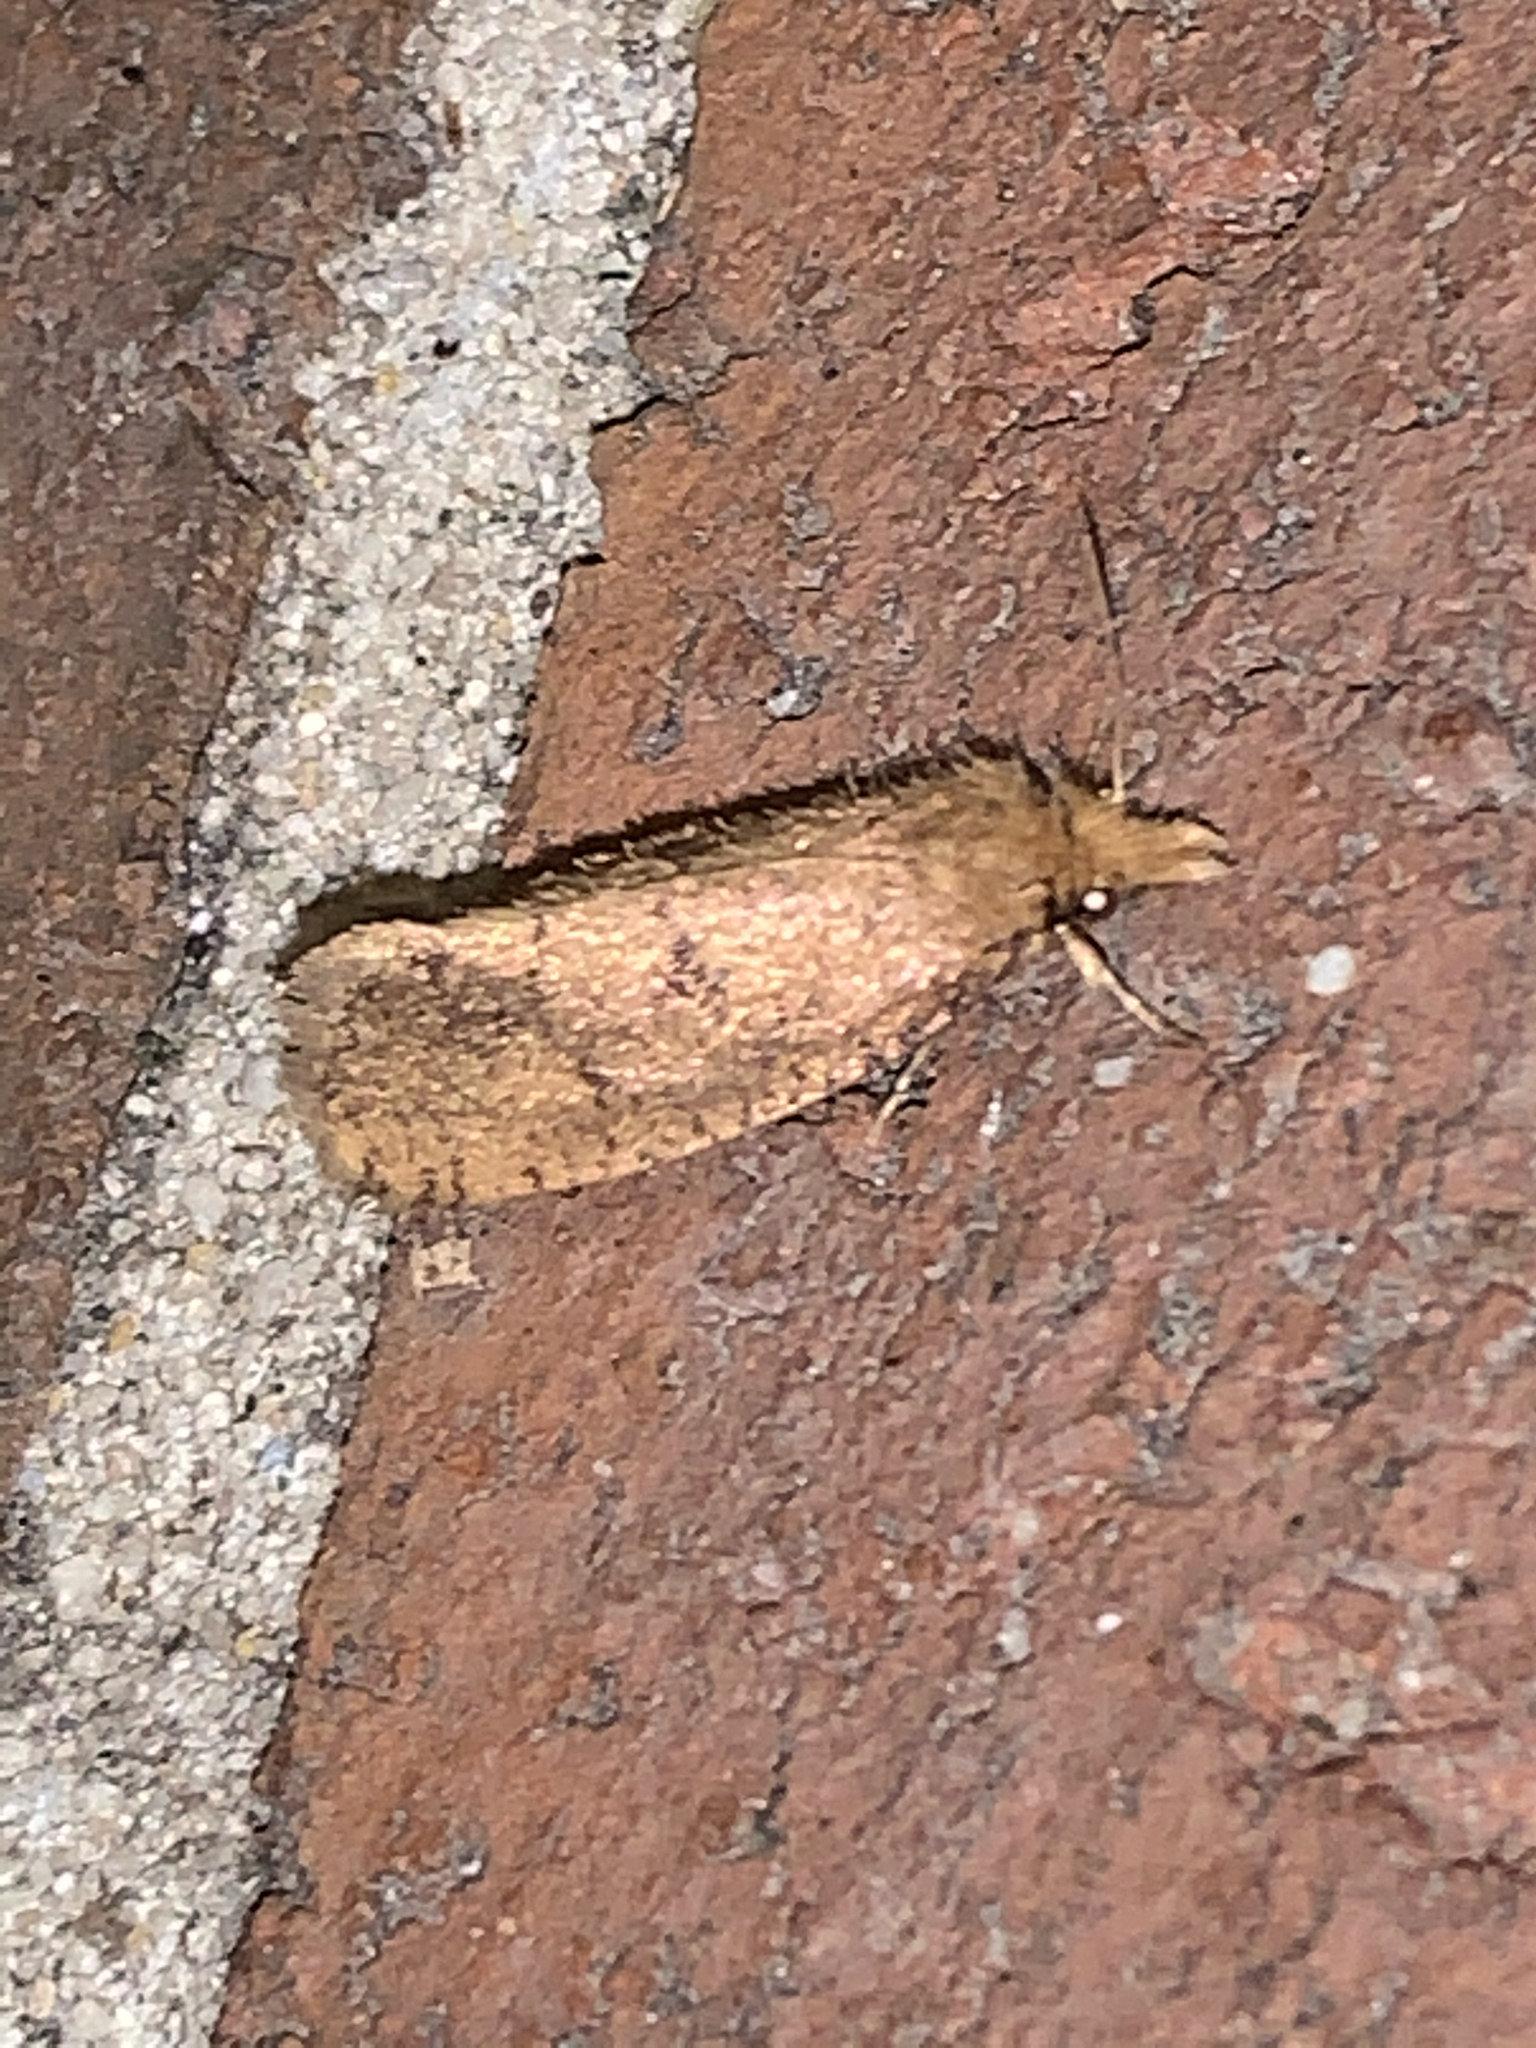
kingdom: Animalia
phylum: Arthropoda
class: Insecta
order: Lepidoptera
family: Tineidae
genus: Acrolophus
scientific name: Acrolophus propinqua
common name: Walsingham's grass tubeworm moth
